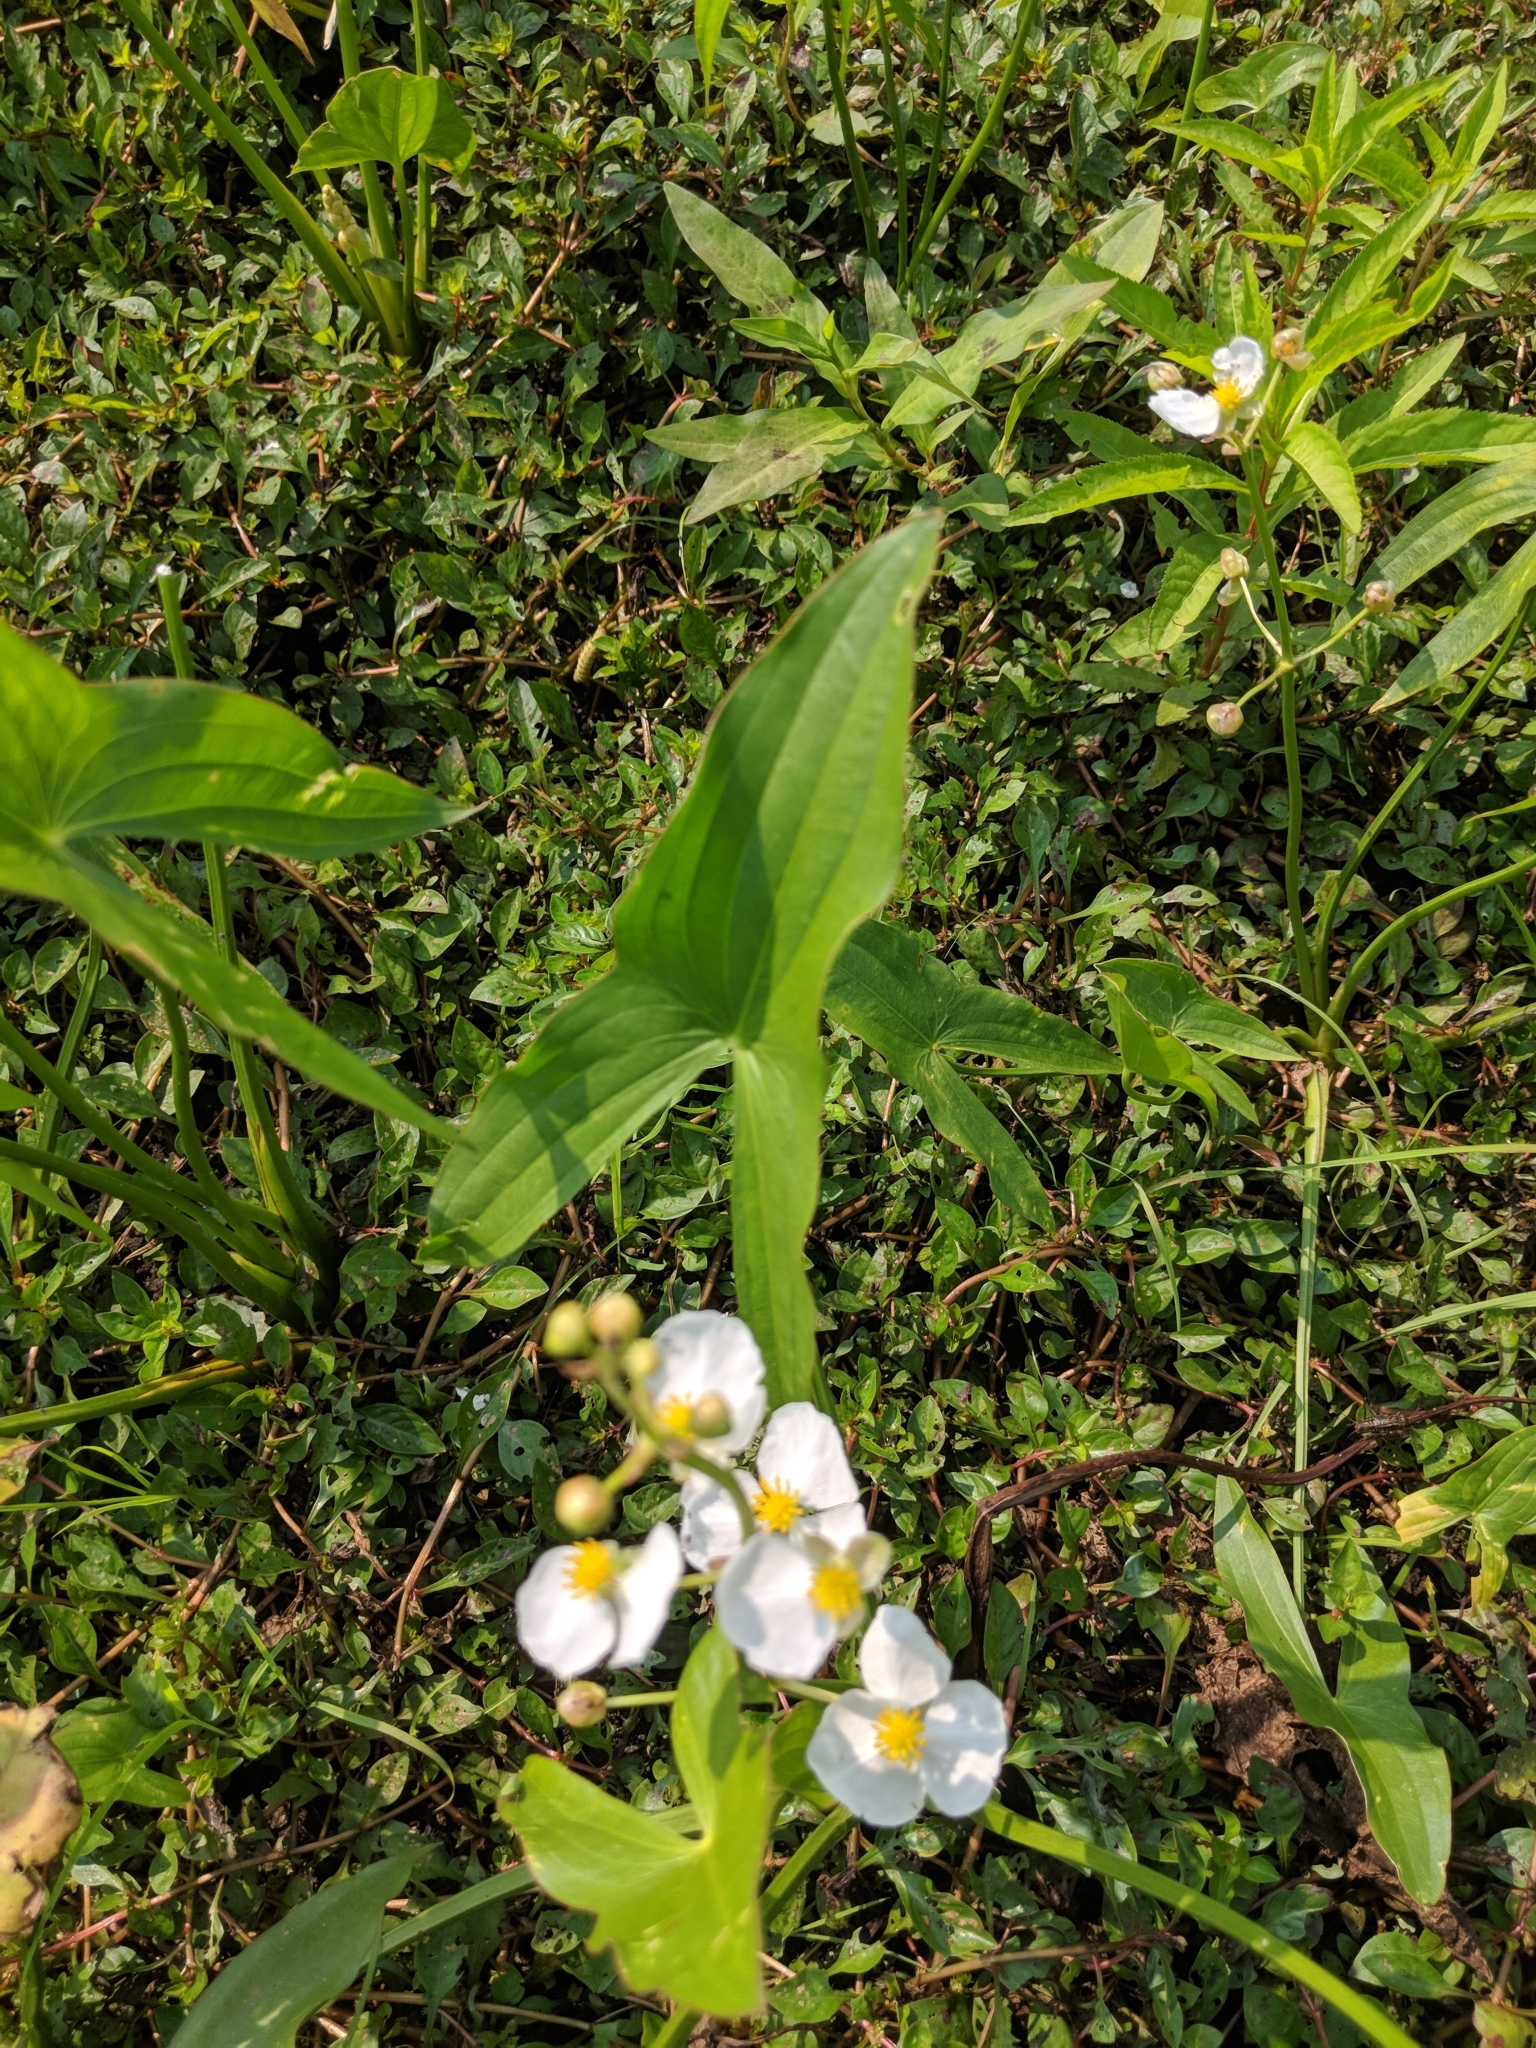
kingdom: Plantae
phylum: Tracheophyta
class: Liliopsida
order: Alismatales
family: Alismataceae
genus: Sagittaria
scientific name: Sagittaria latifolia
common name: Duck-potato
